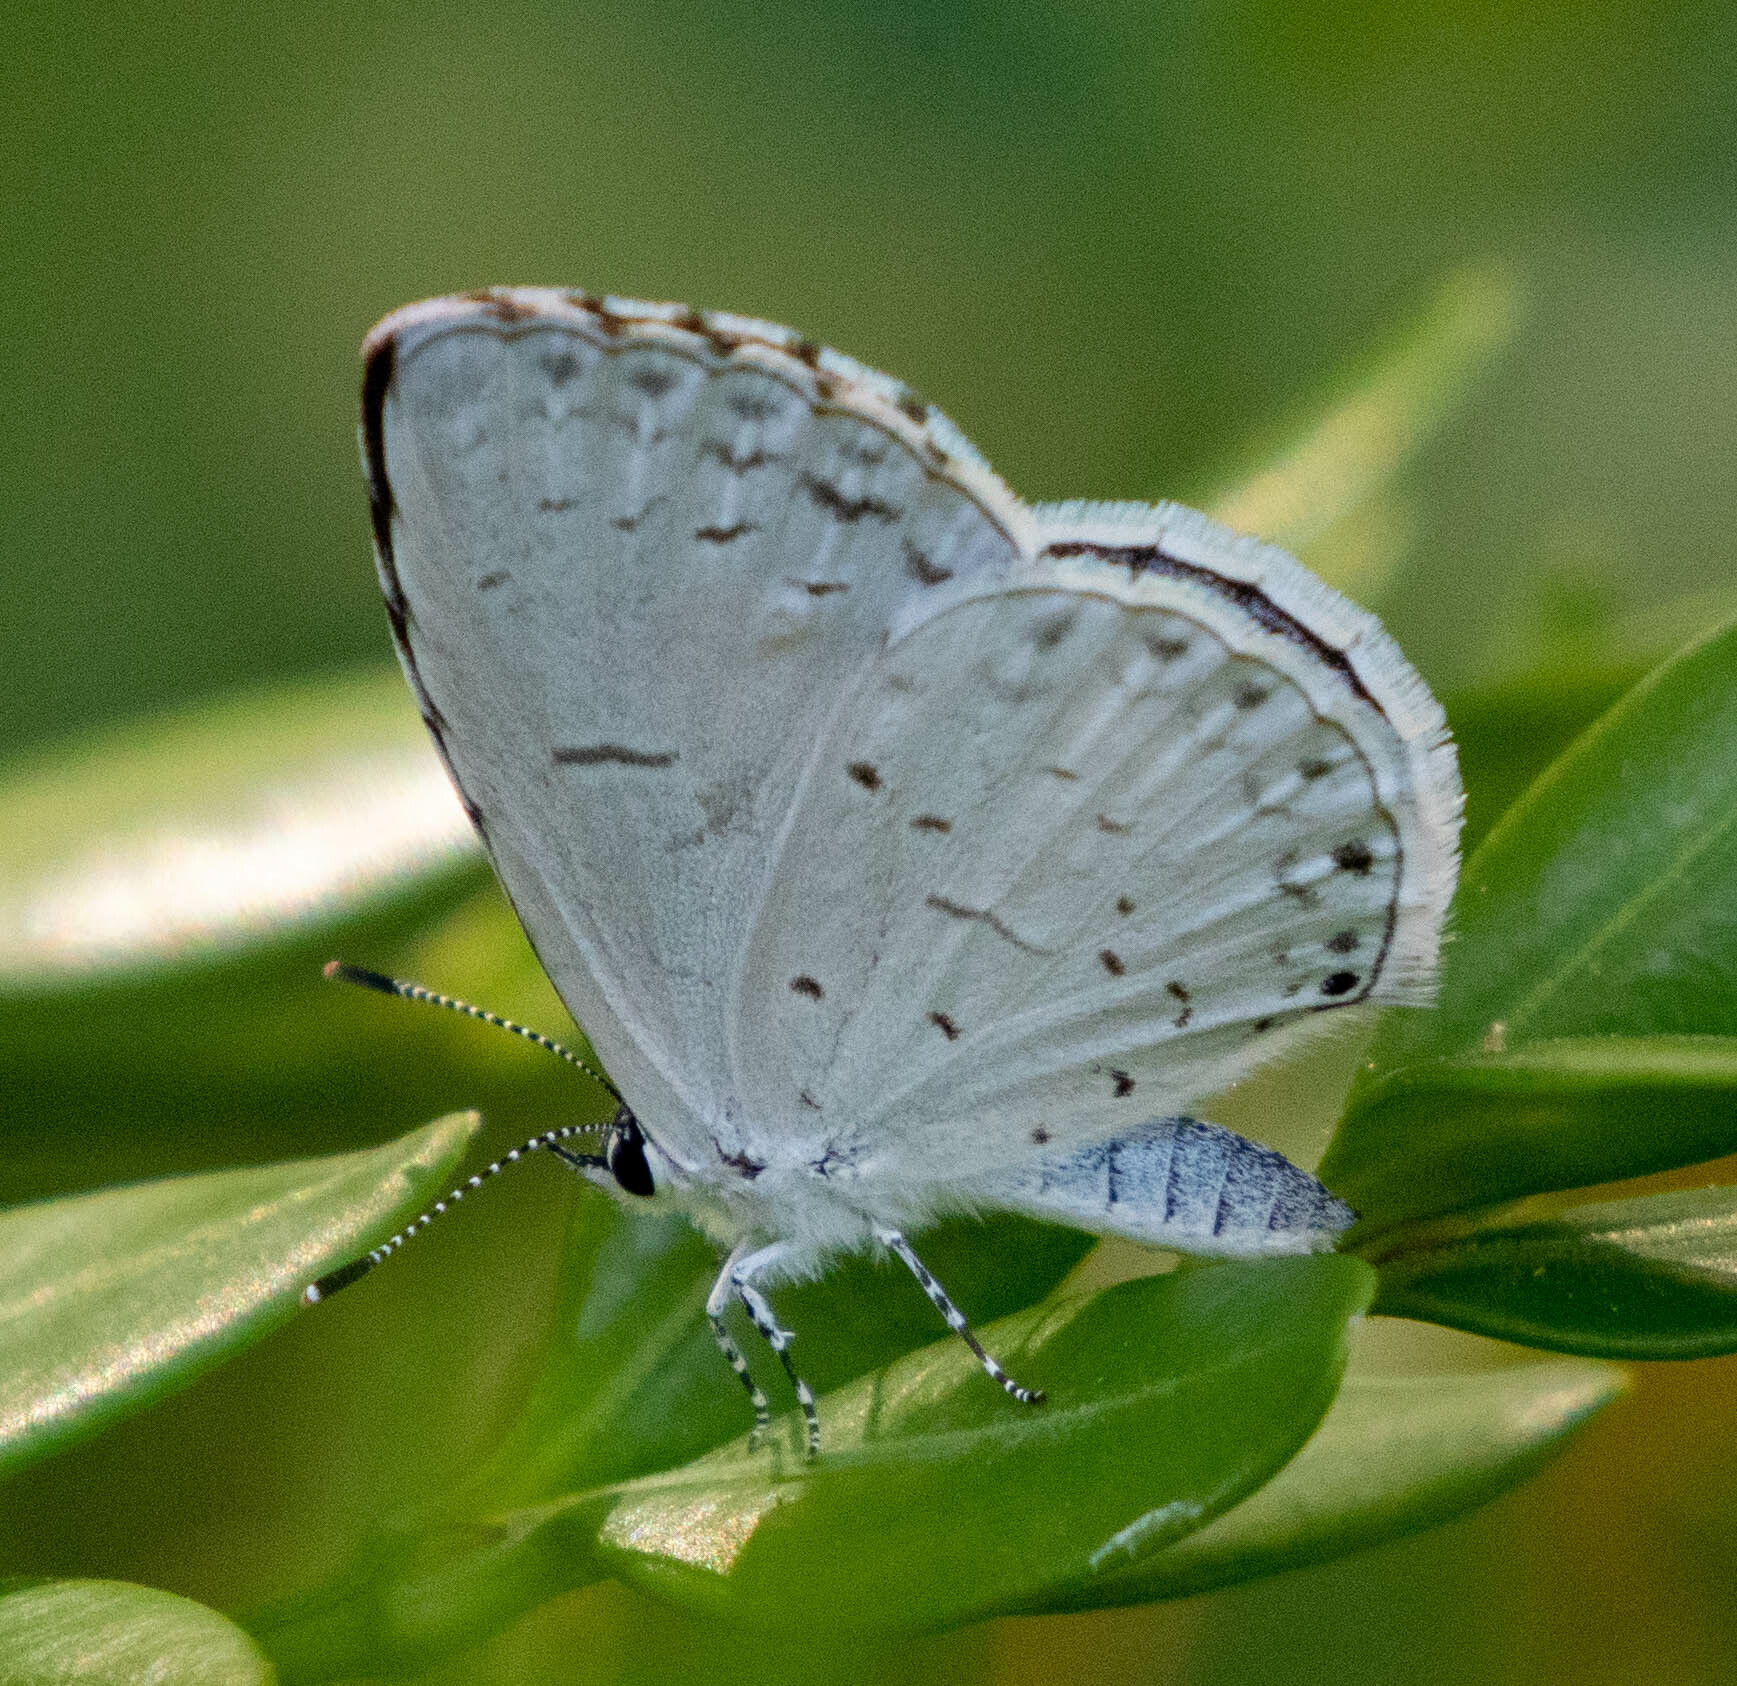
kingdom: Animalia
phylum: Arthropoda
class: Insecta
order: Lepidoptera
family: Lycaenidae
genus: Cyaniris
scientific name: Cyaniris neglecta
